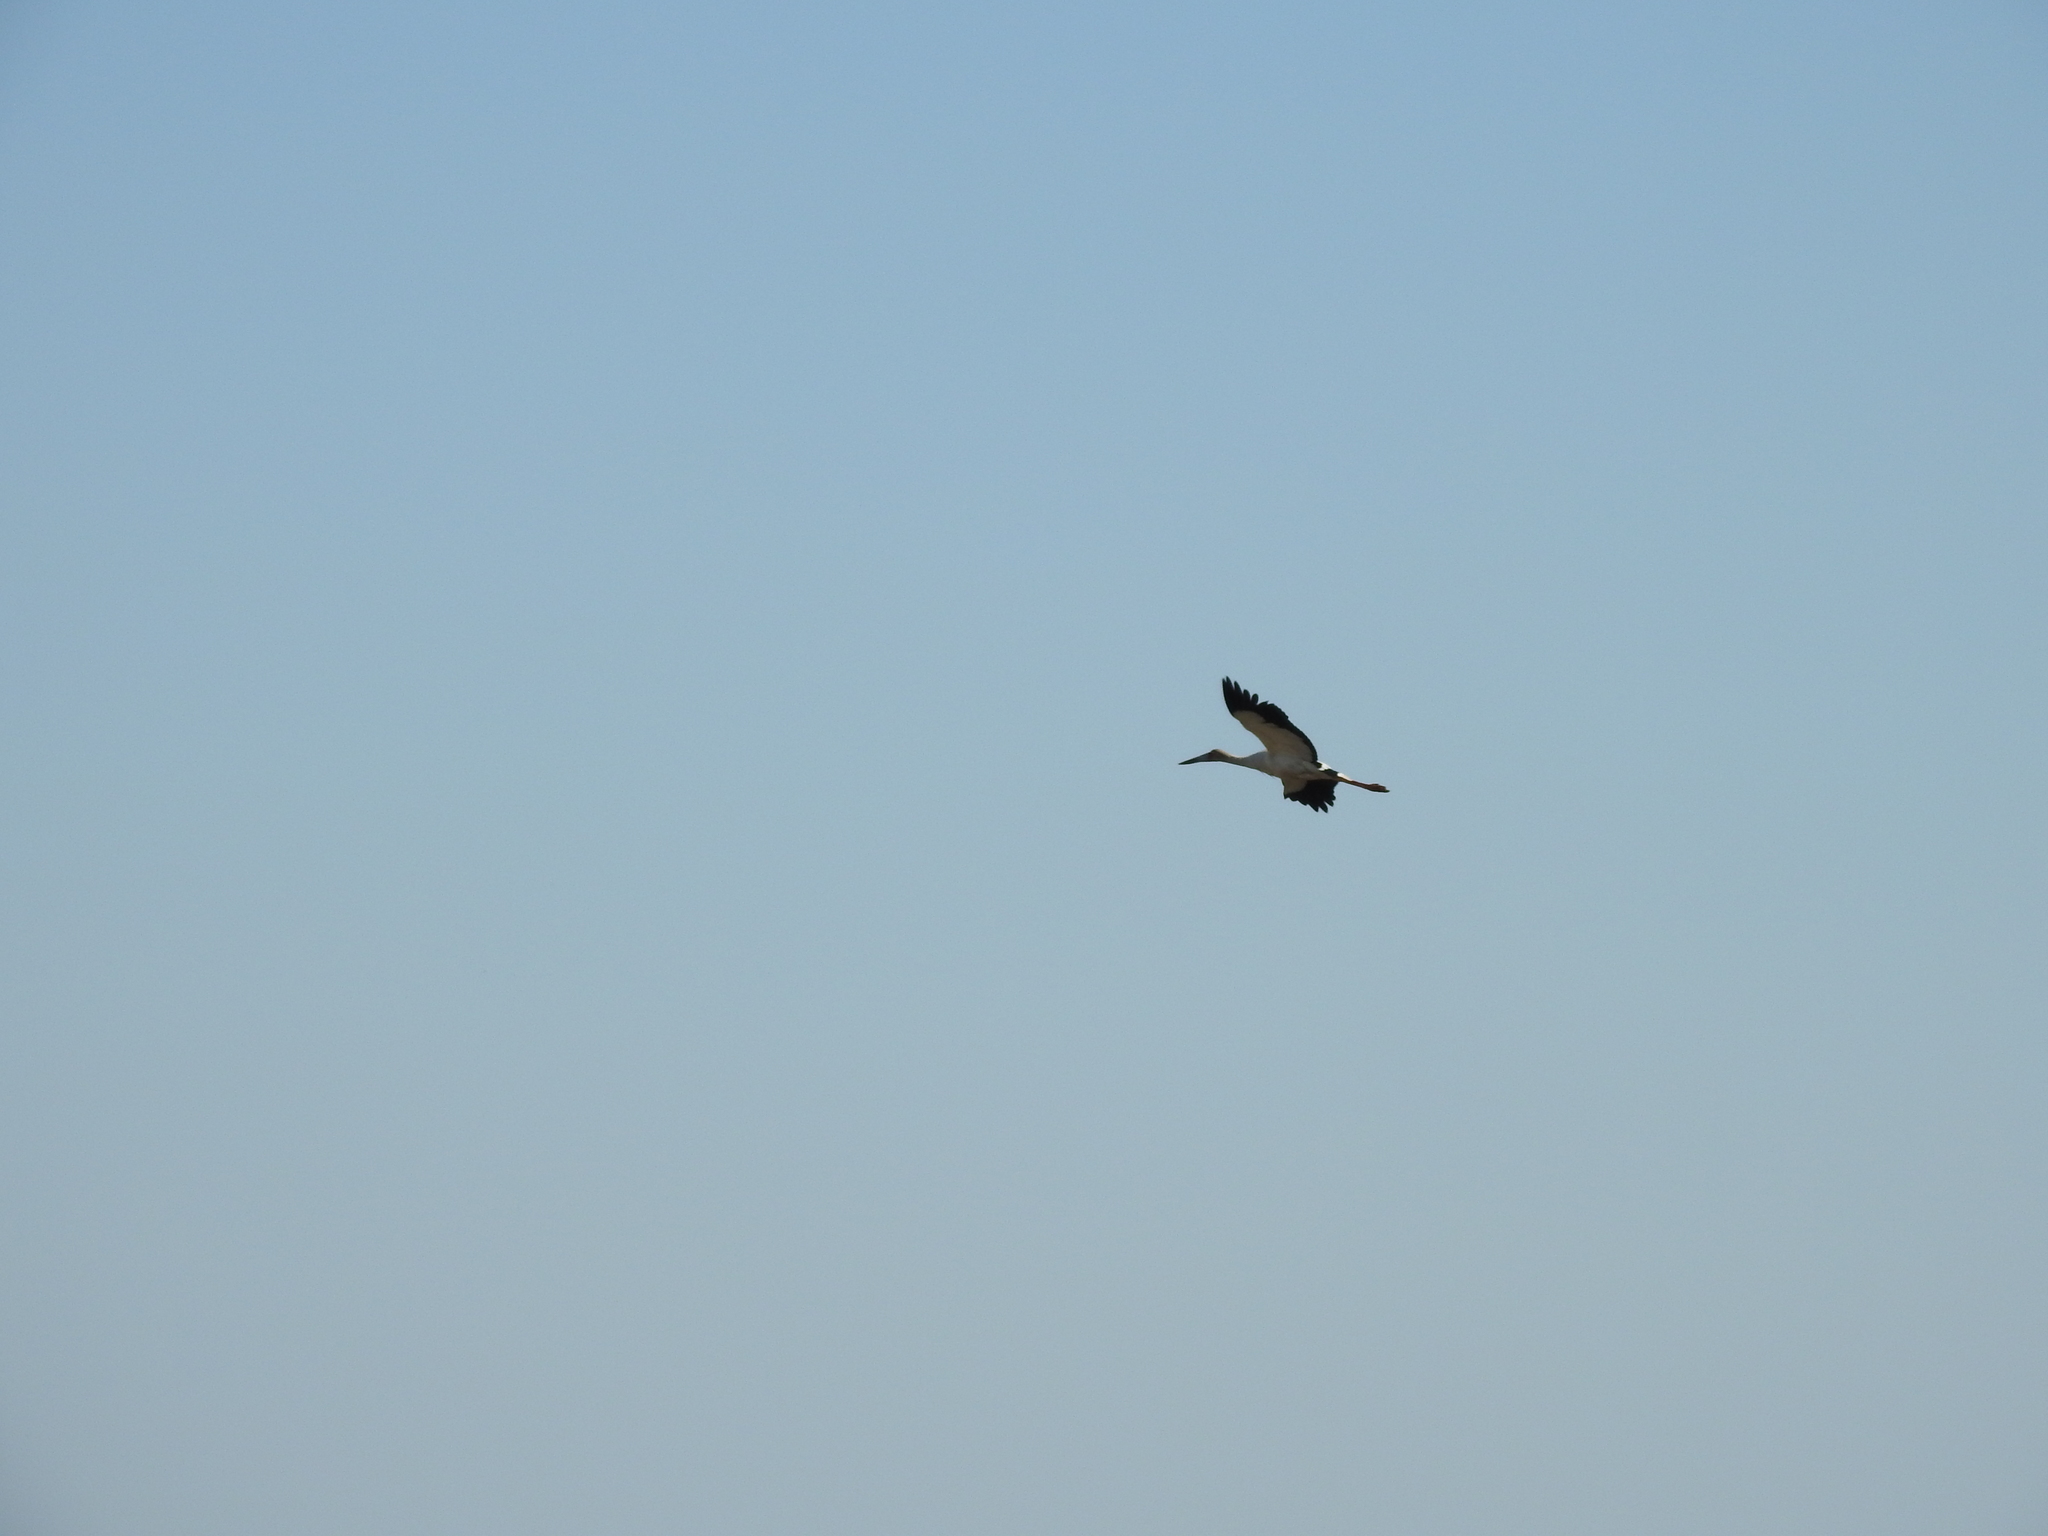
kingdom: Animalia
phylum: Chordata
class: Aves
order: Ciconiiformes
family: Ciconiidae
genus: Ciconia
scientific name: Ciconia maguari
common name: Maguari stork
